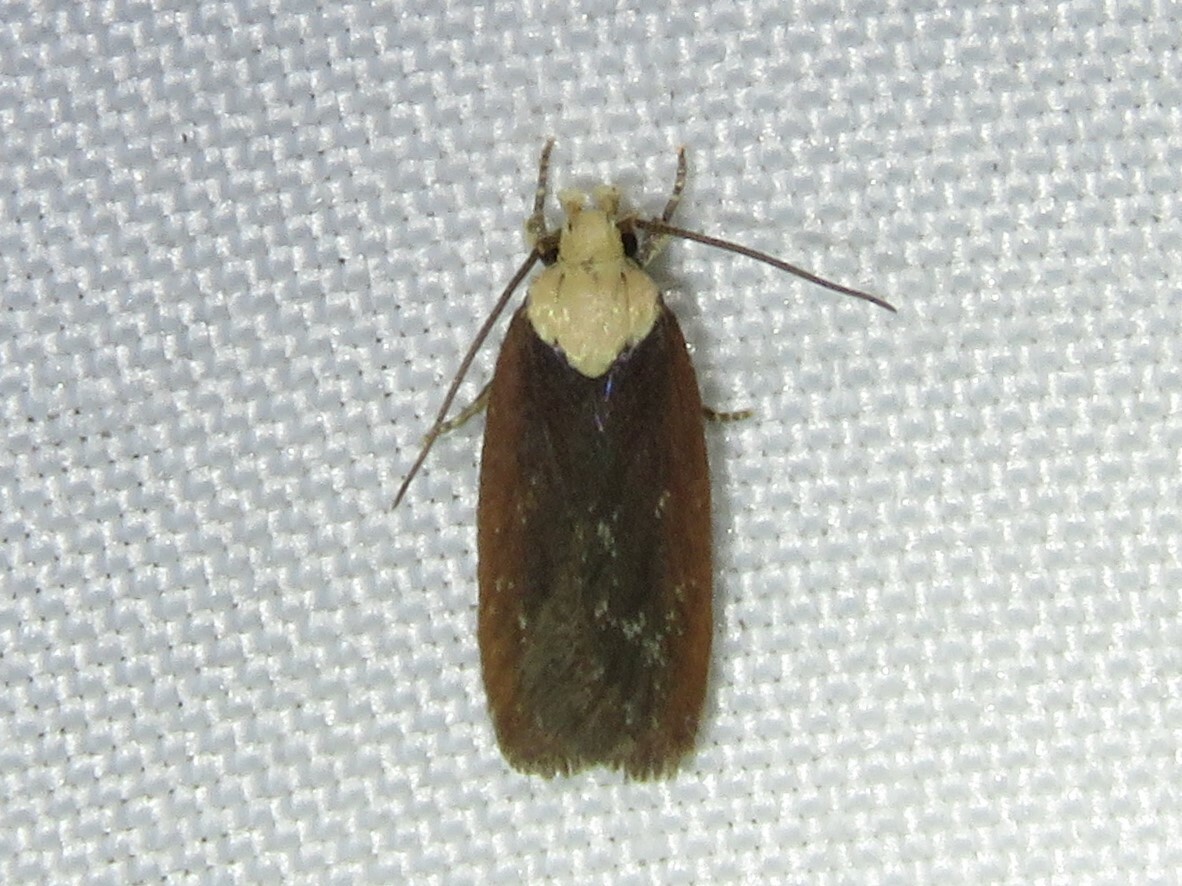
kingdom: Animalia
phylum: Arthropoda
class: Insecta
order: Lepidoptera
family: Depressariidae
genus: Depressaria
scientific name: Depressaria depressana
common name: Lost flat-body
